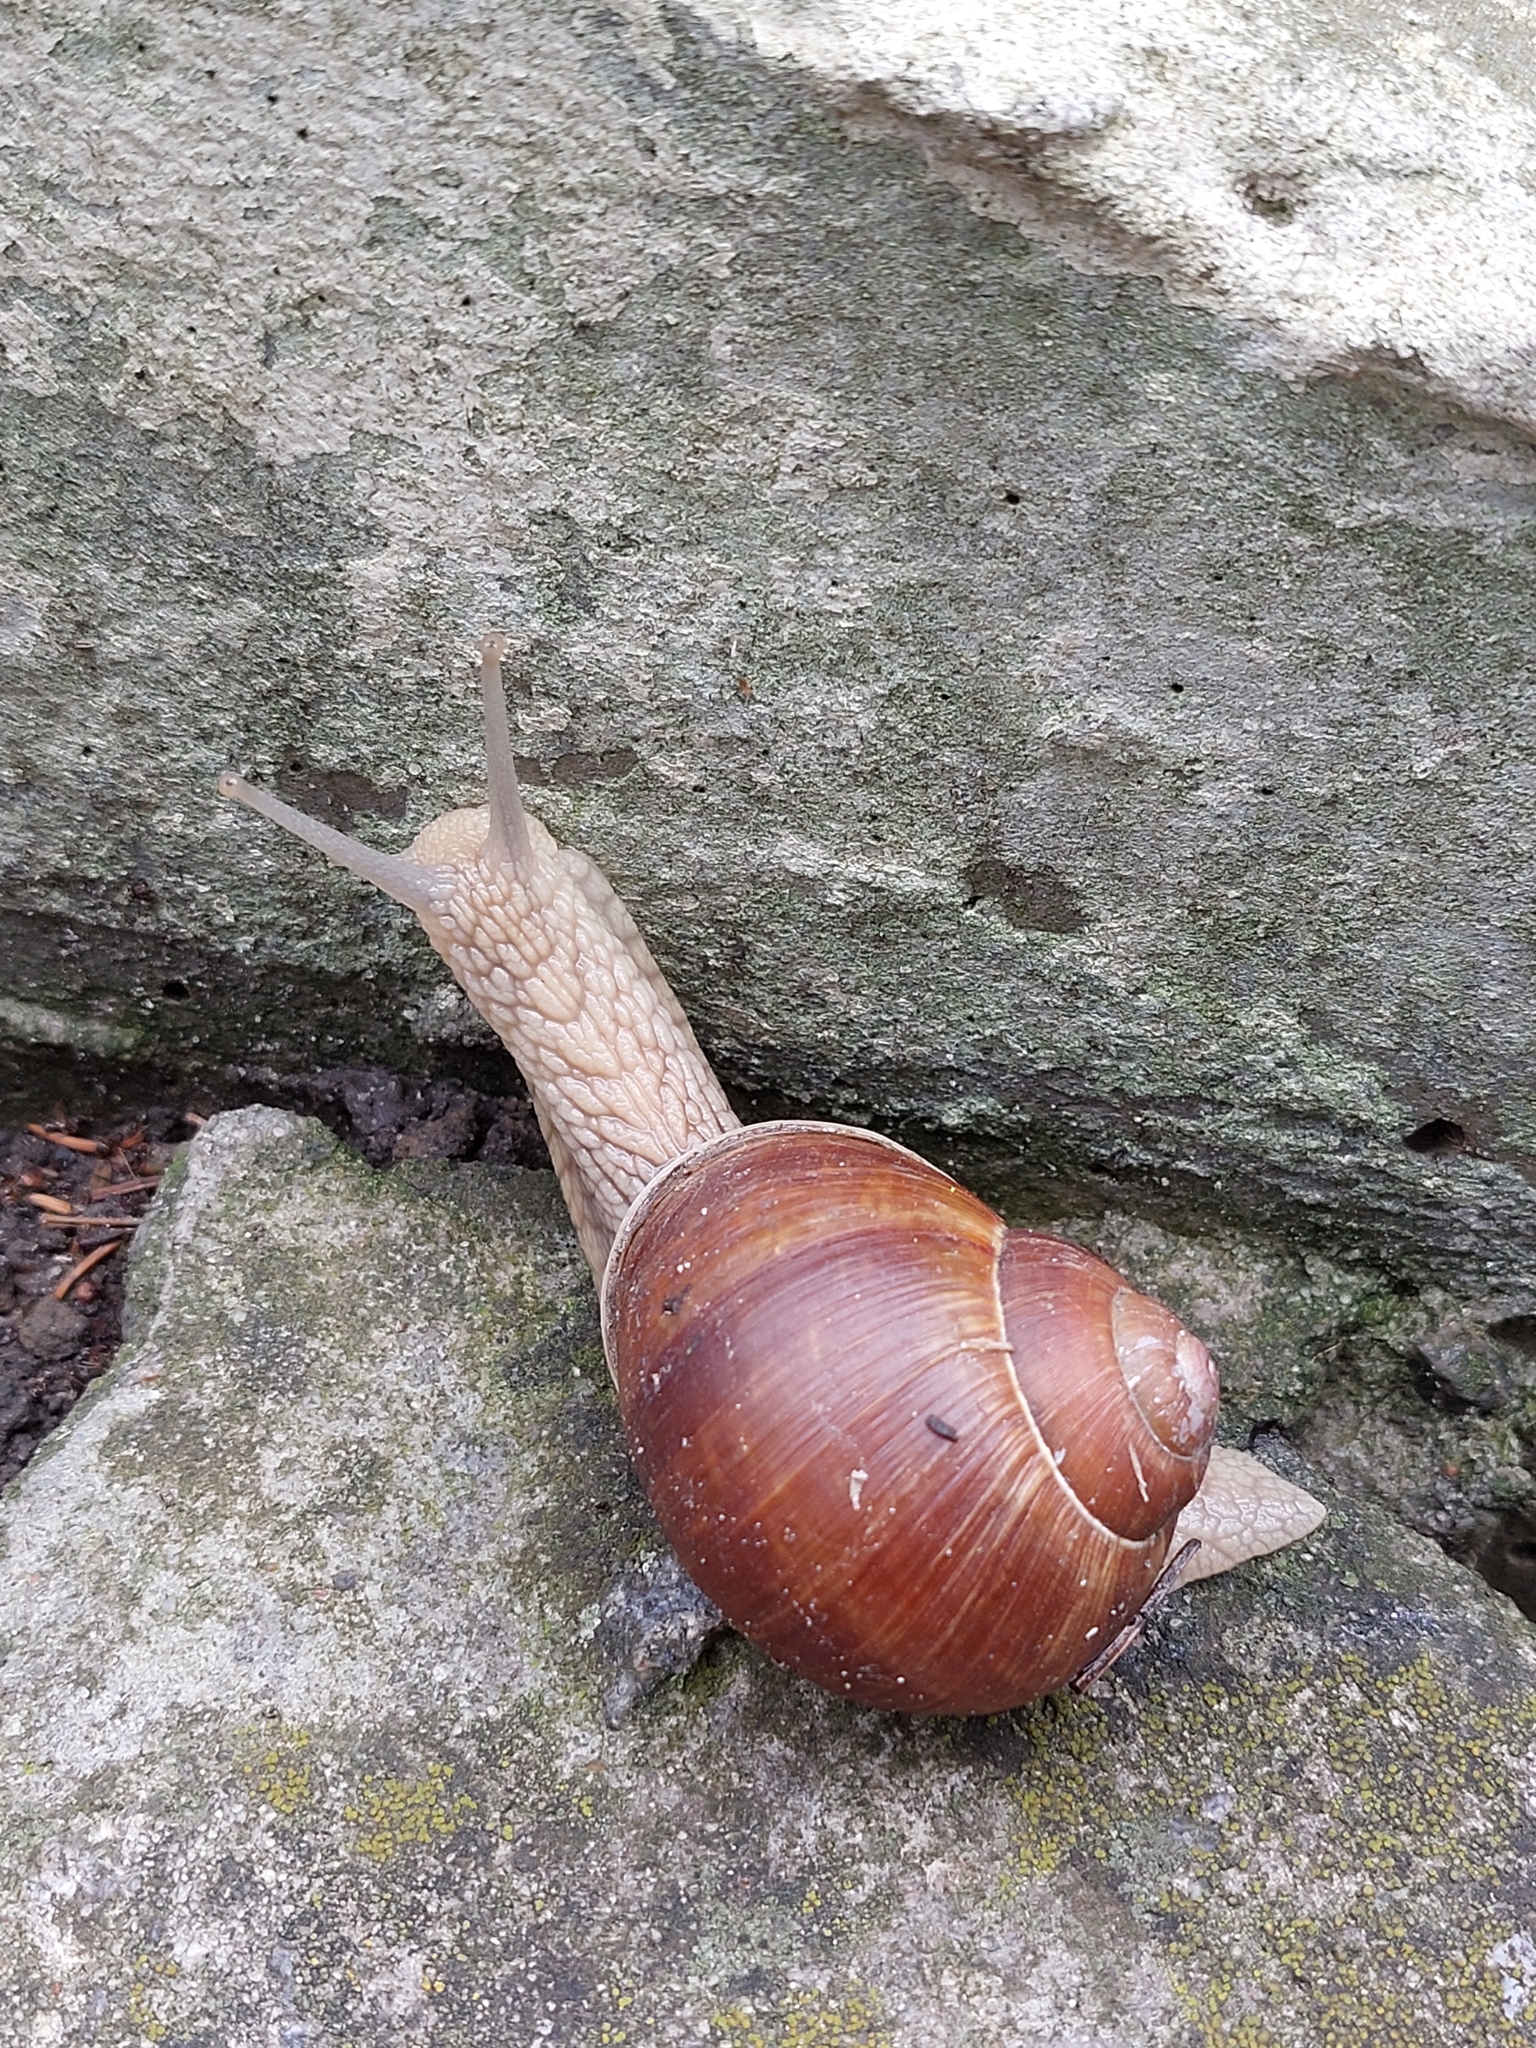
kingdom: Animalia
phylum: Mollusca
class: Gastropoda
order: Stylommatophora
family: Helicidae
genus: Helix
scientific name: Helix pomatia
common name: Roman snail
